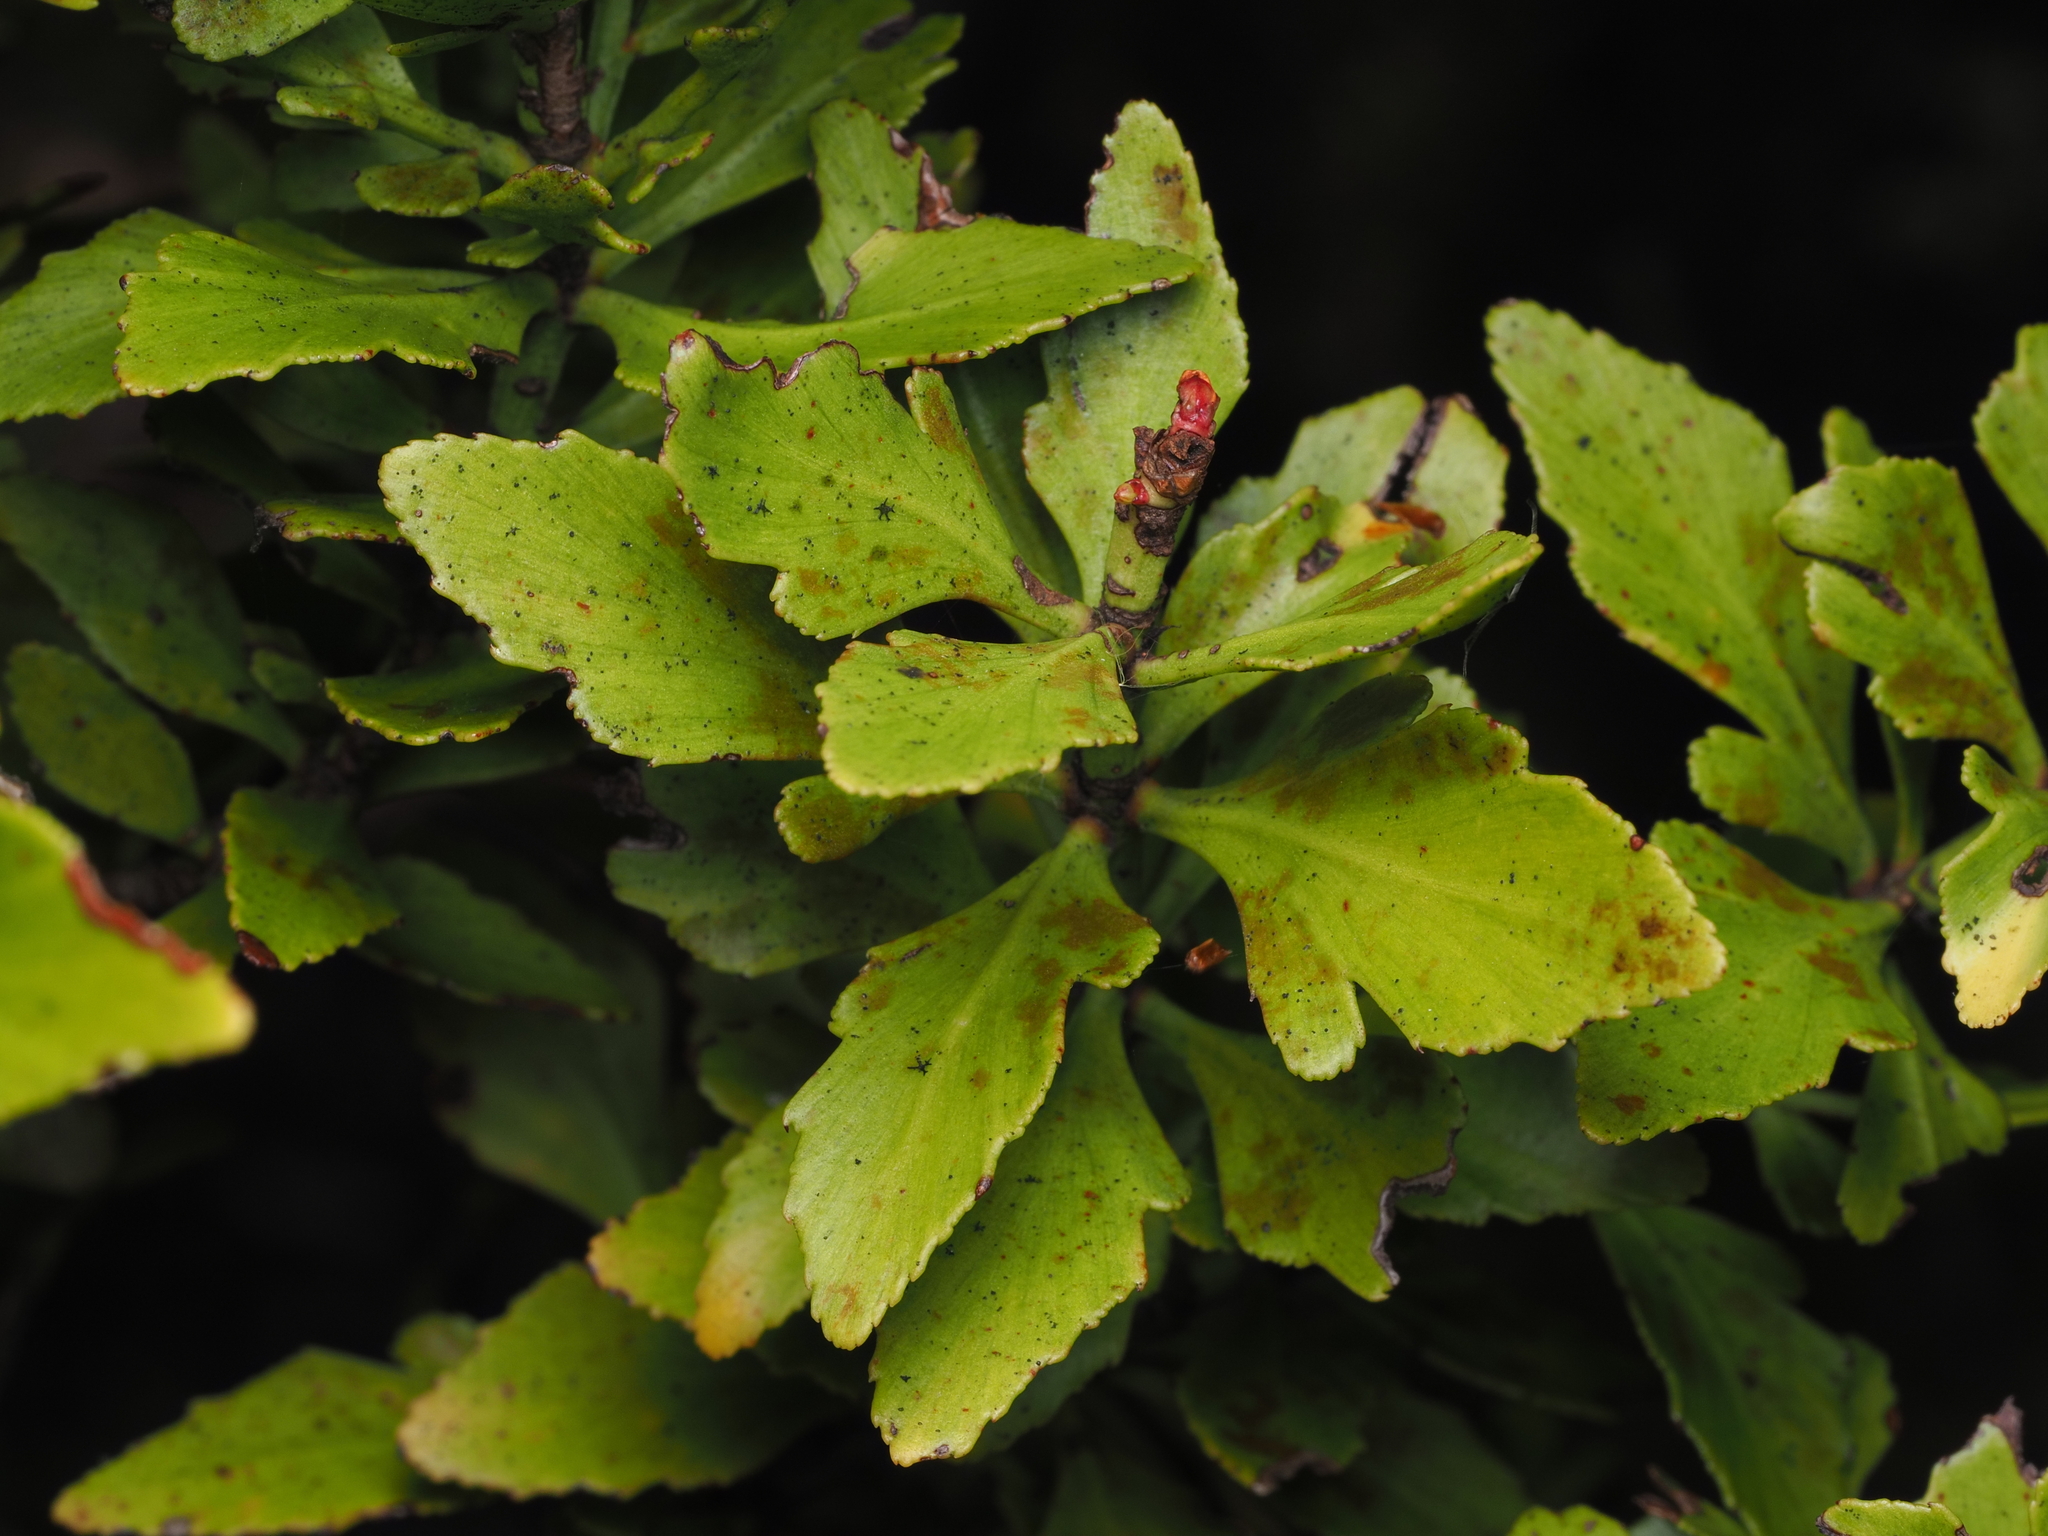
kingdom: Plantae
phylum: Tracheophyta
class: Pinopsida
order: Pinales
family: Phyllocladaceae
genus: Phyllocladus
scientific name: Phyllocladus trichomanoides
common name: Celery pine
